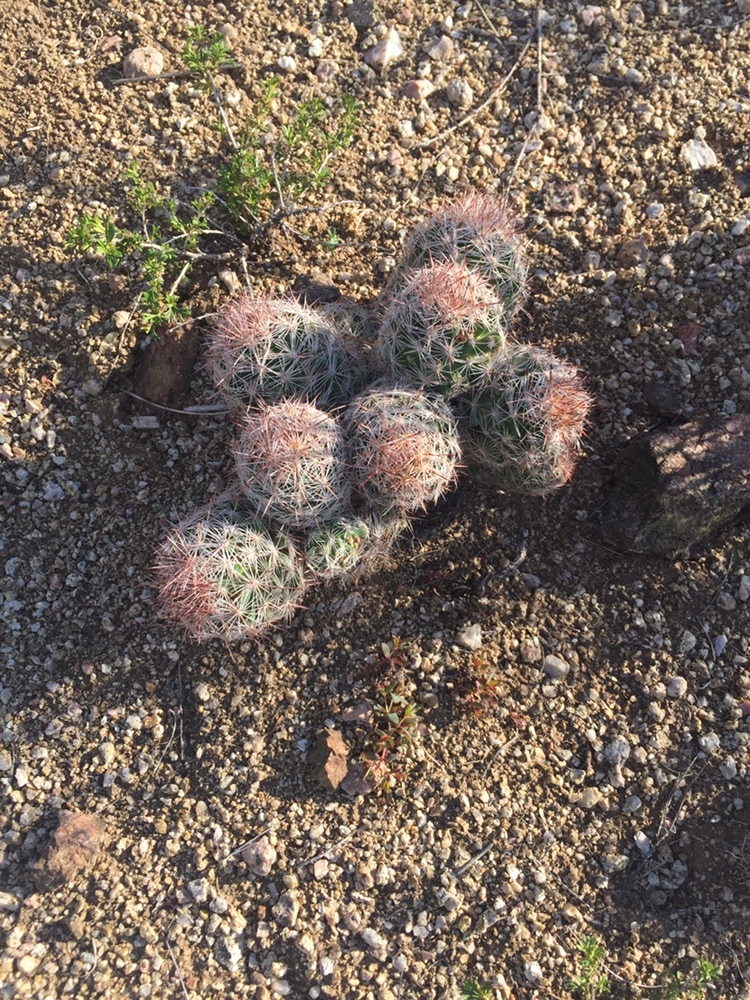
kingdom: Plantae
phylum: Tracheophyta
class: Magnoliopsida
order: Caryophyllales
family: Cactaceae
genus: Pelecyphora
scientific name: Pelecyphora vivipara
